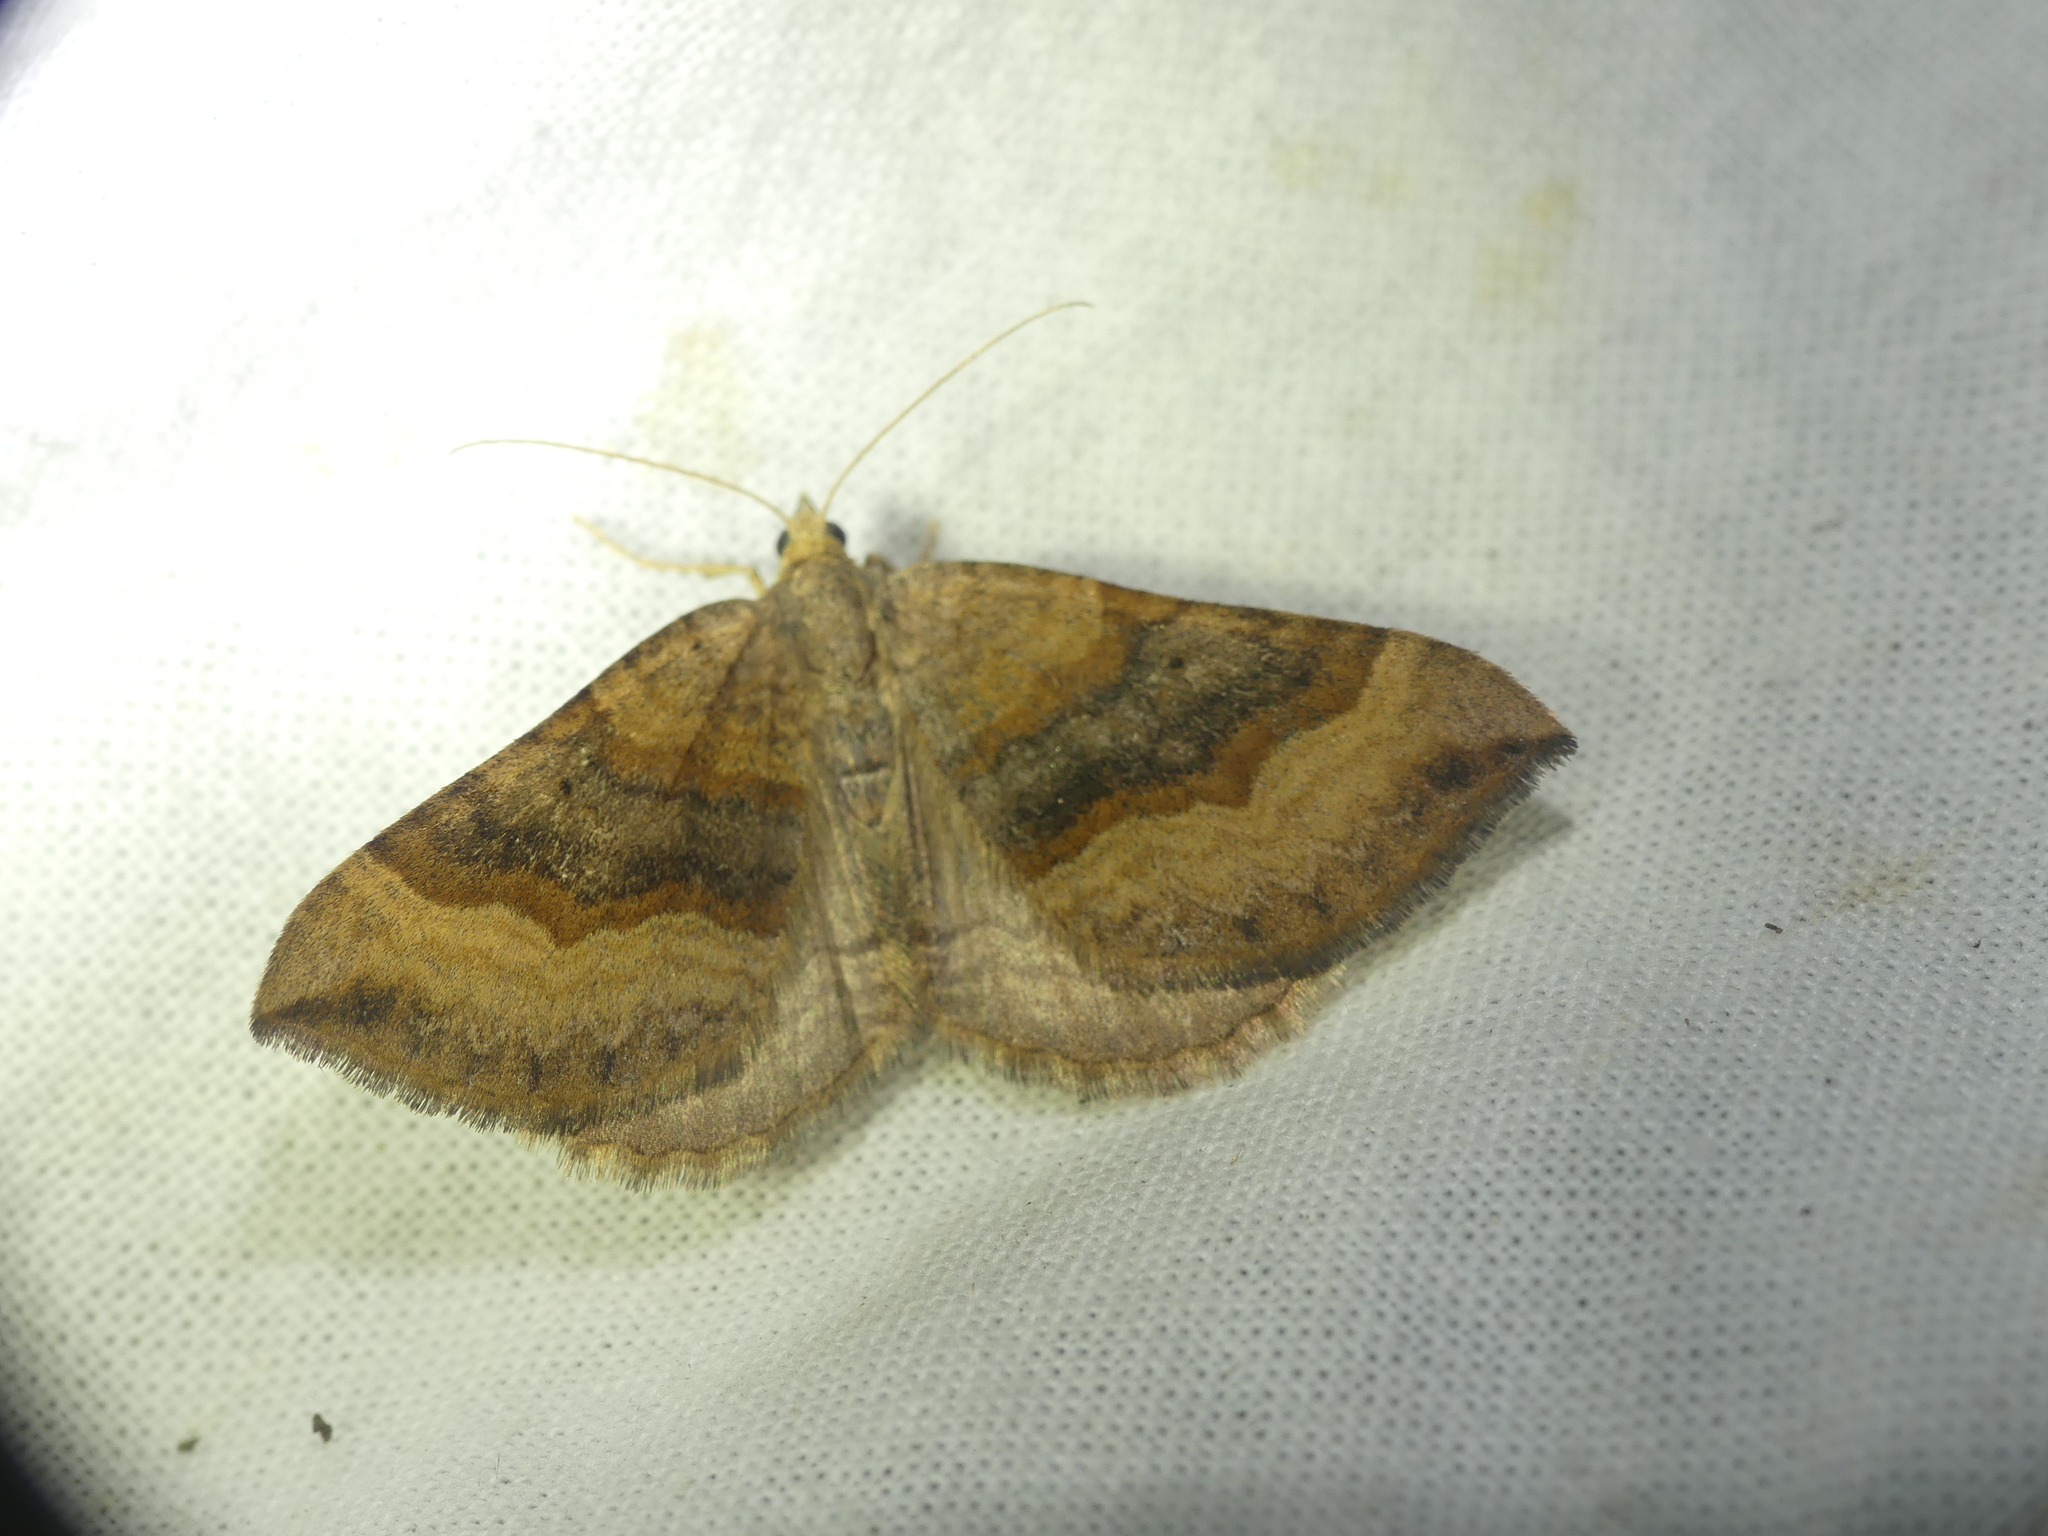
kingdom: Animalia
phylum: Arthropoda
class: Insecta
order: Lepidoptera
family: Geometridae
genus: Scotopteryx
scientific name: Scotopteryx chenopodiata
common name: Shaded broad-bar
